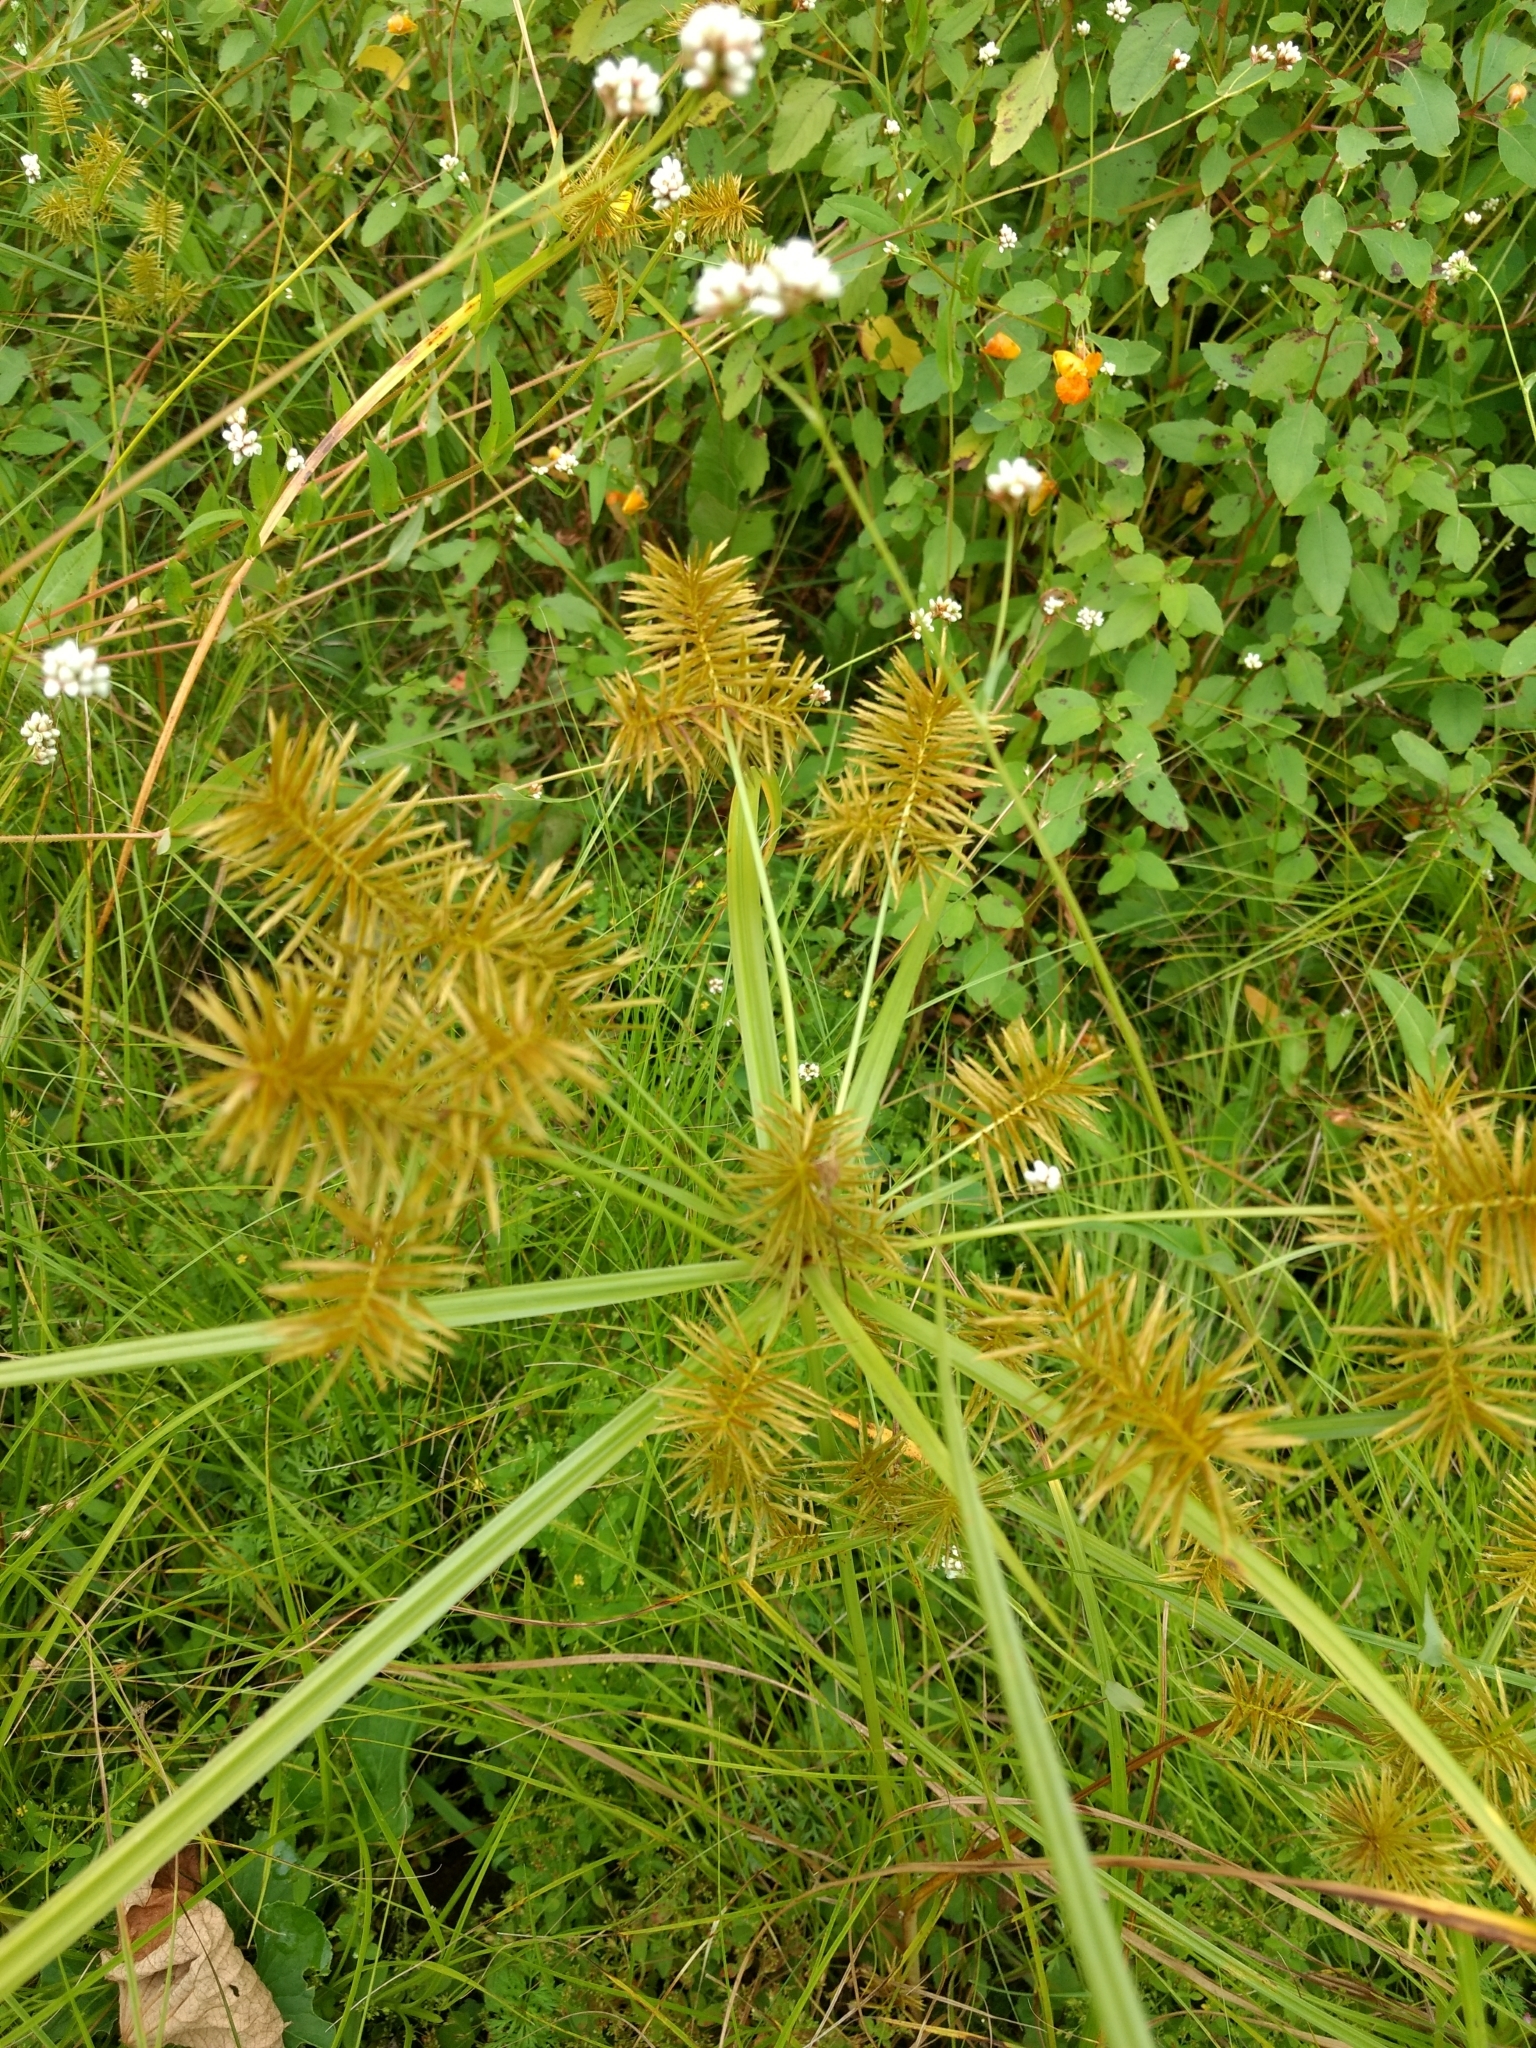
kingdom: Plantae
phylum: Tracheophyta
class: Liliopsida
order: Poales
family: Cyperaceae
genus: Cyperus
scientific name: Cyperus strigosus
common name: False nutsedge
